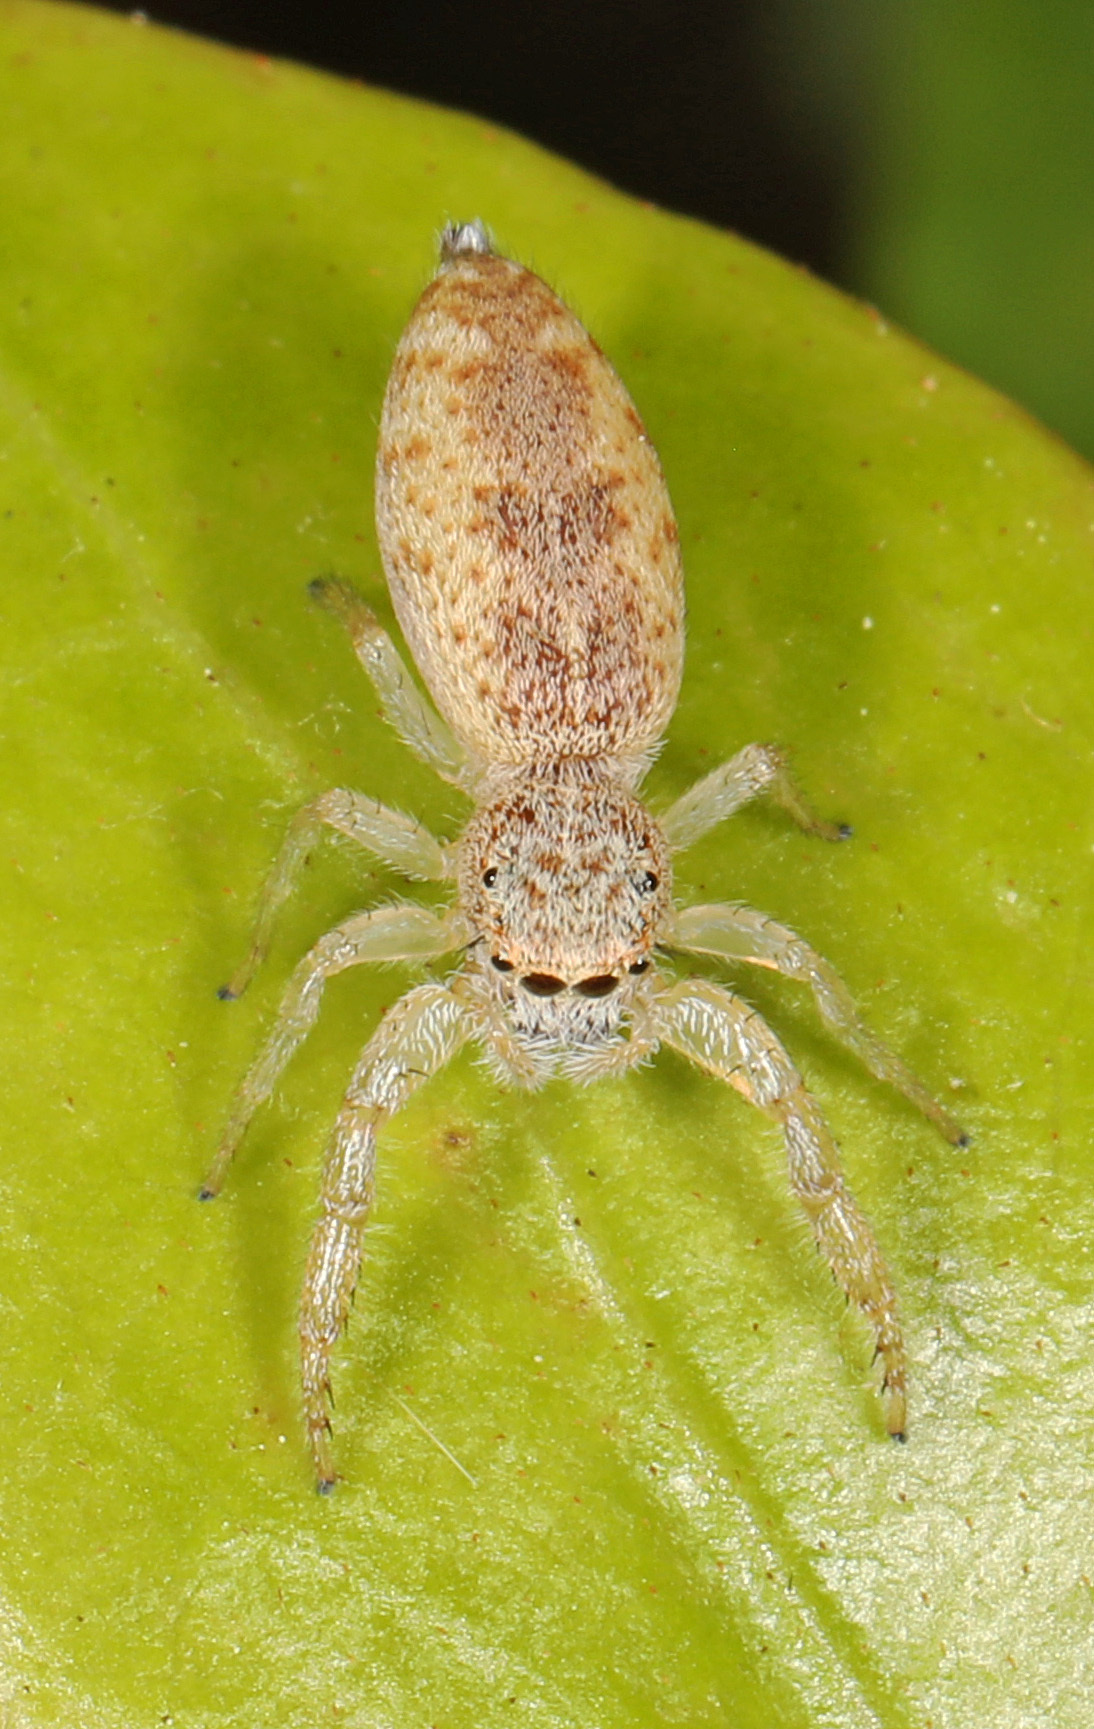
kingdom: Animalia
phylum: Arthropoda
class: Arachnida
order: Araneae
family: Salticidae
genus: Hentzia
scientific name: Hentzia mitrata
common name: White-jawed jumping spider
